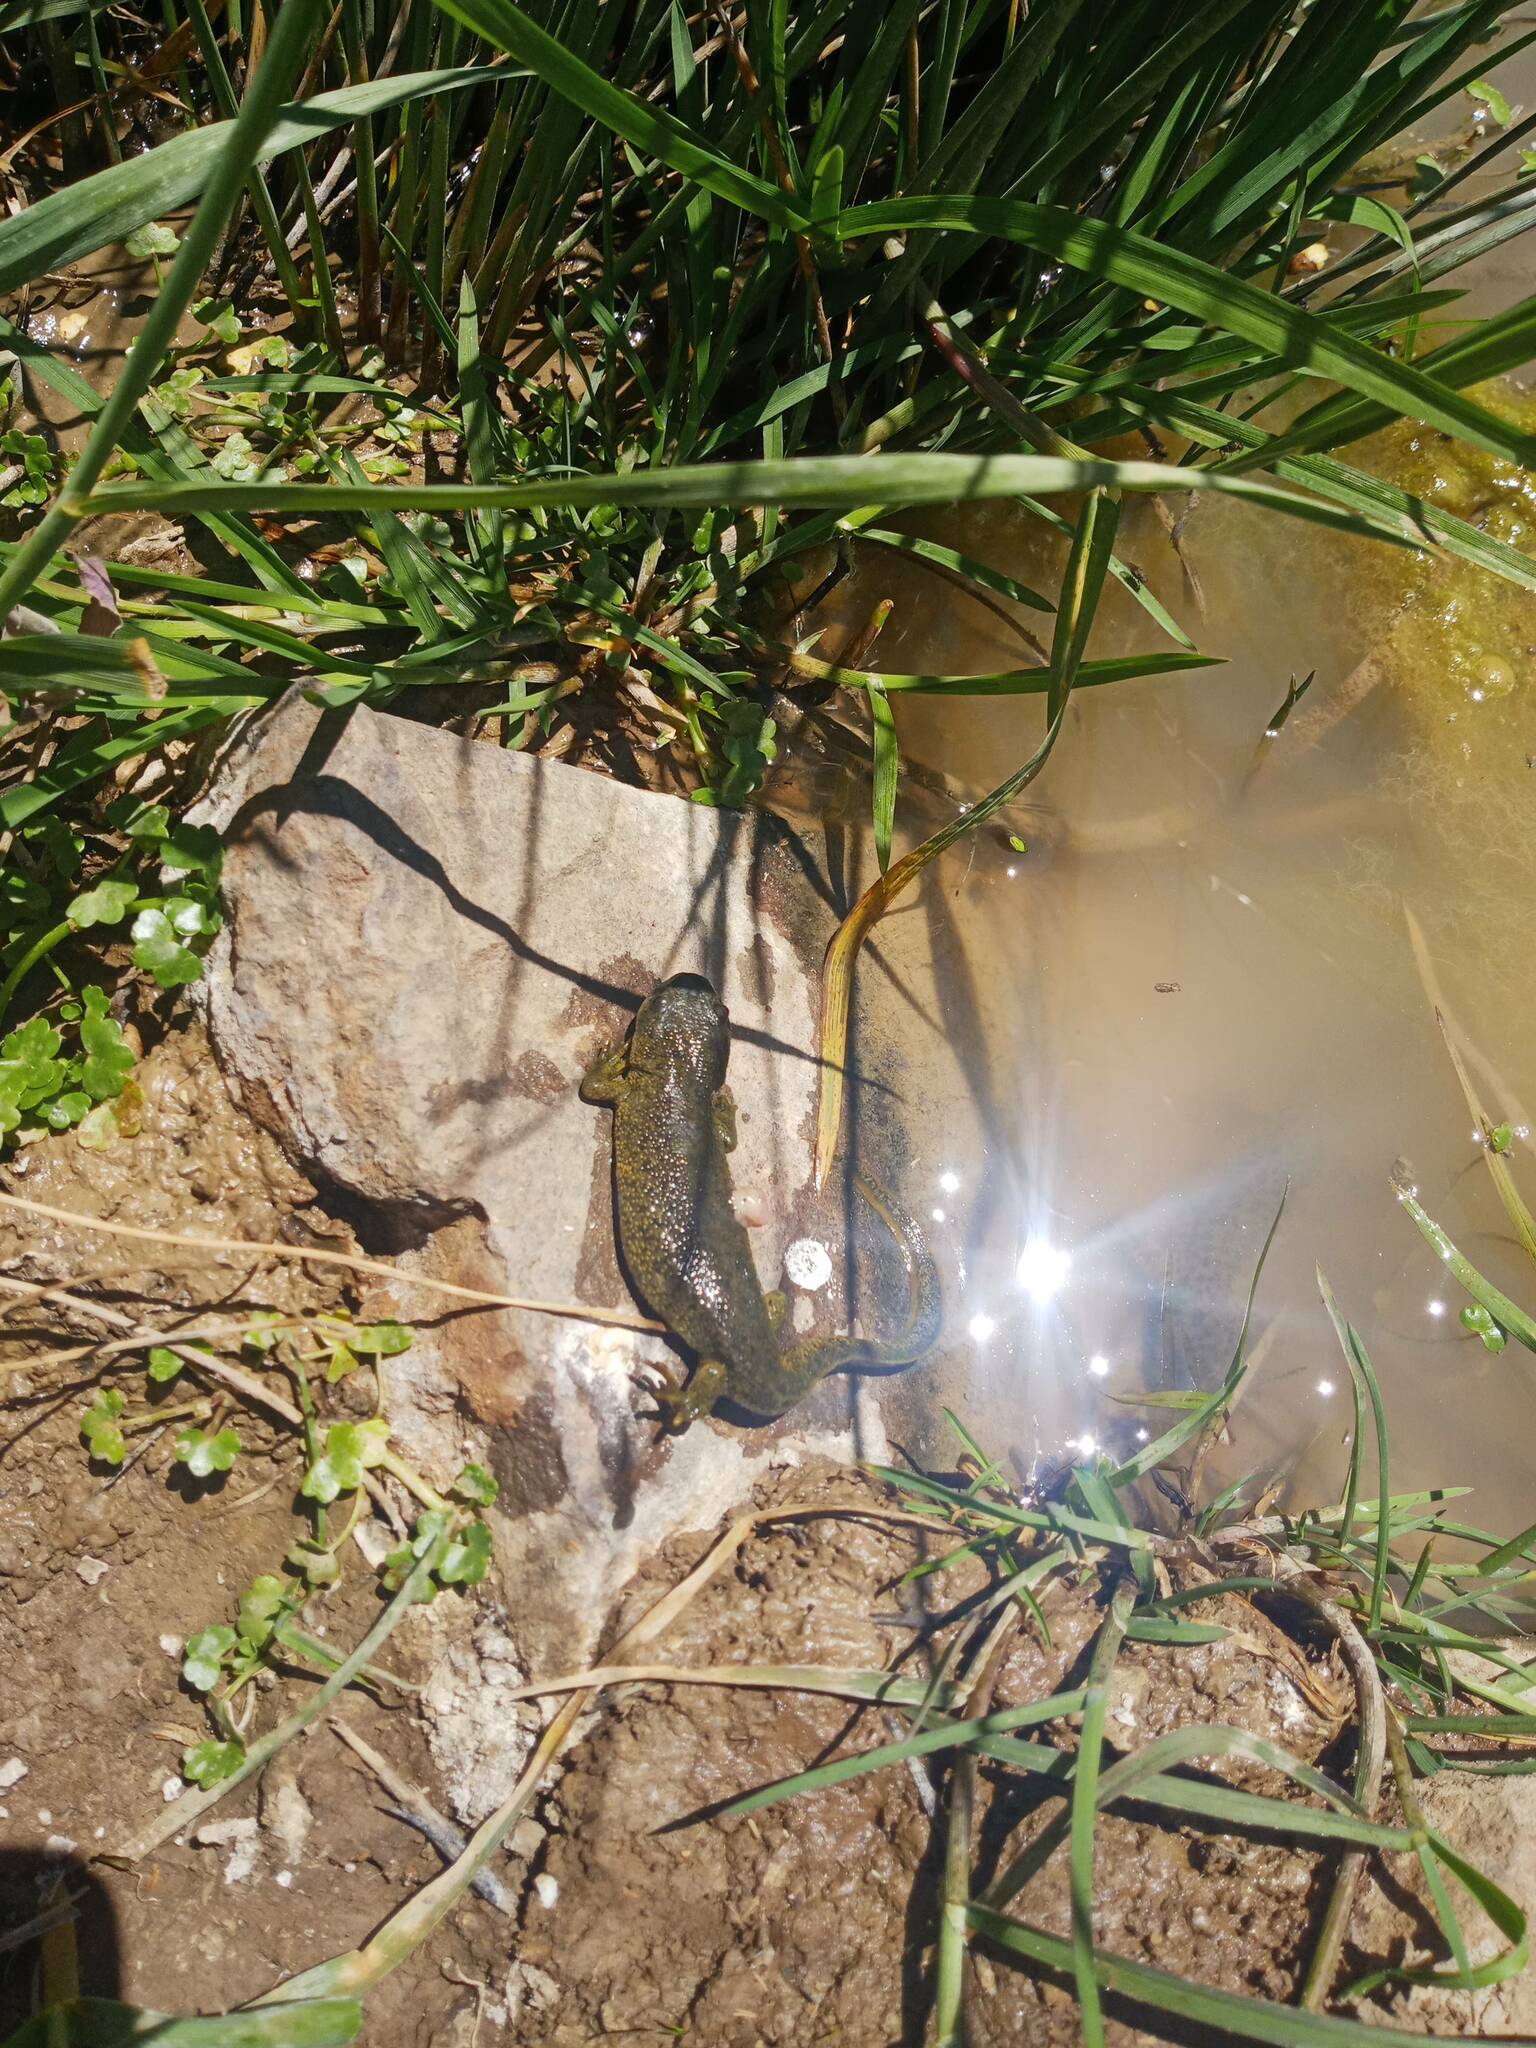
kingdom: Animalia
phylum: Chordata
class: Amphibia
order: Caudata
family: Salamandridae
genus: Pleurodeles
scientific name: Pleurodeles nebulosus
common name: Algerian ribbed newt
